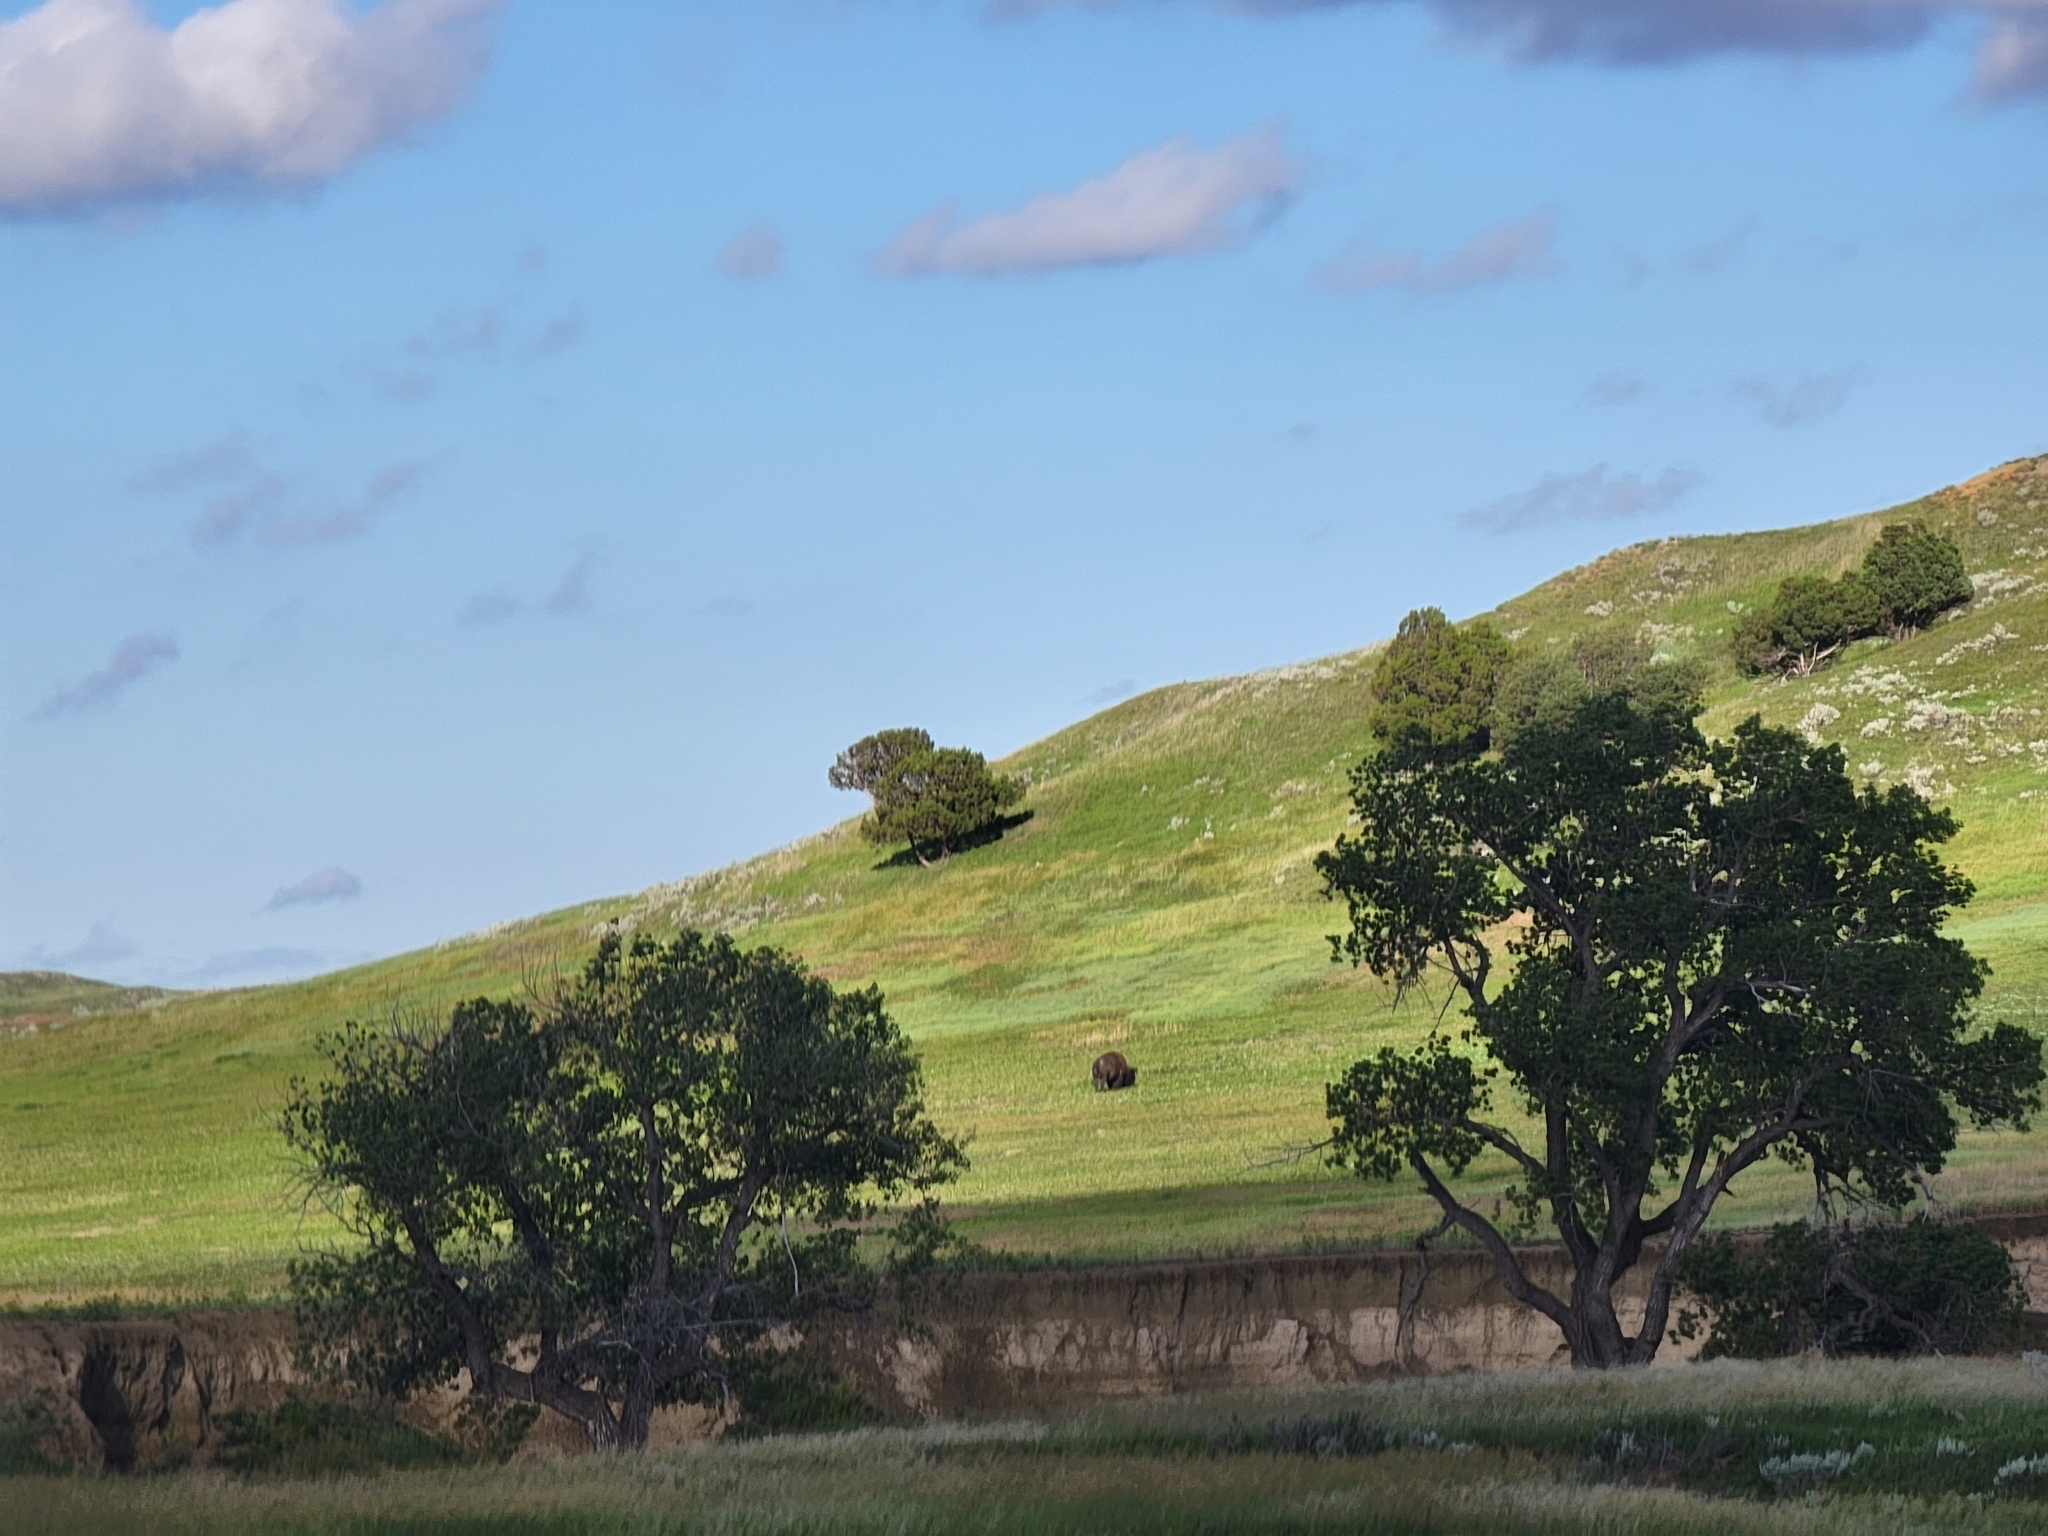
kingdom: Animalia
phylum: Chordata
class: Mammalia
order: Artiodactyla
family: Bovidae
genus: Bison
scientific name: Bison bison
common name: American bison
